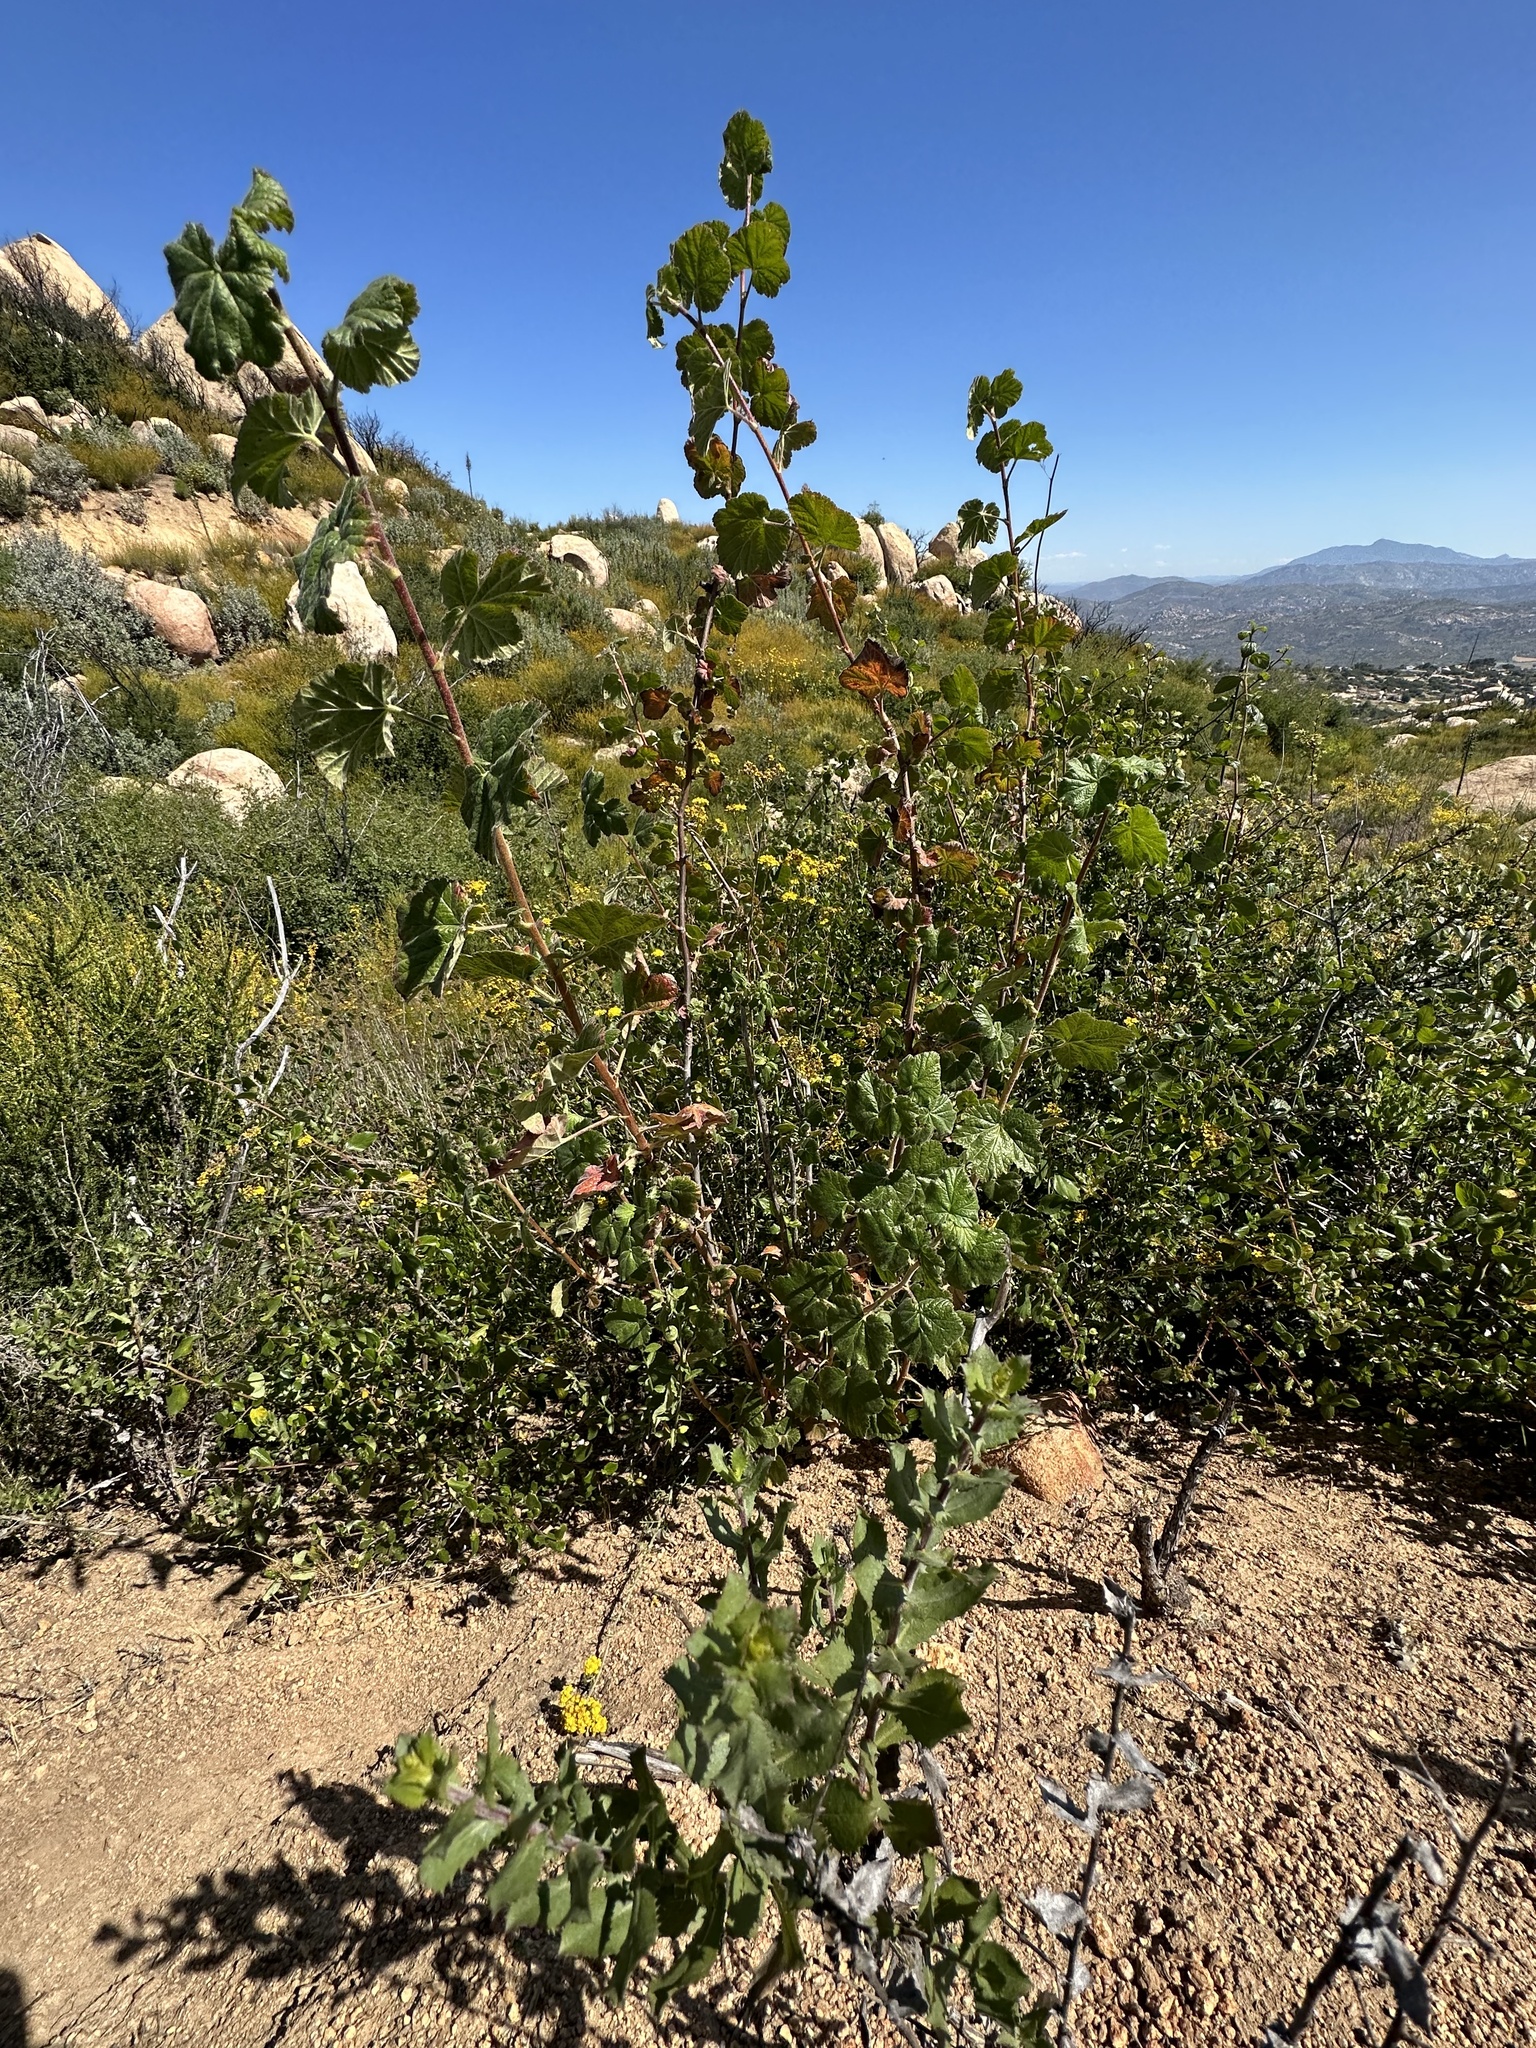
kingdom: Plantae
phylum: Tracheophyta
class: Magnoliopsida
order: Saxifragales
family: Grossulariaceae
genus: Ribes
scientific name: Ribes canthariforme
